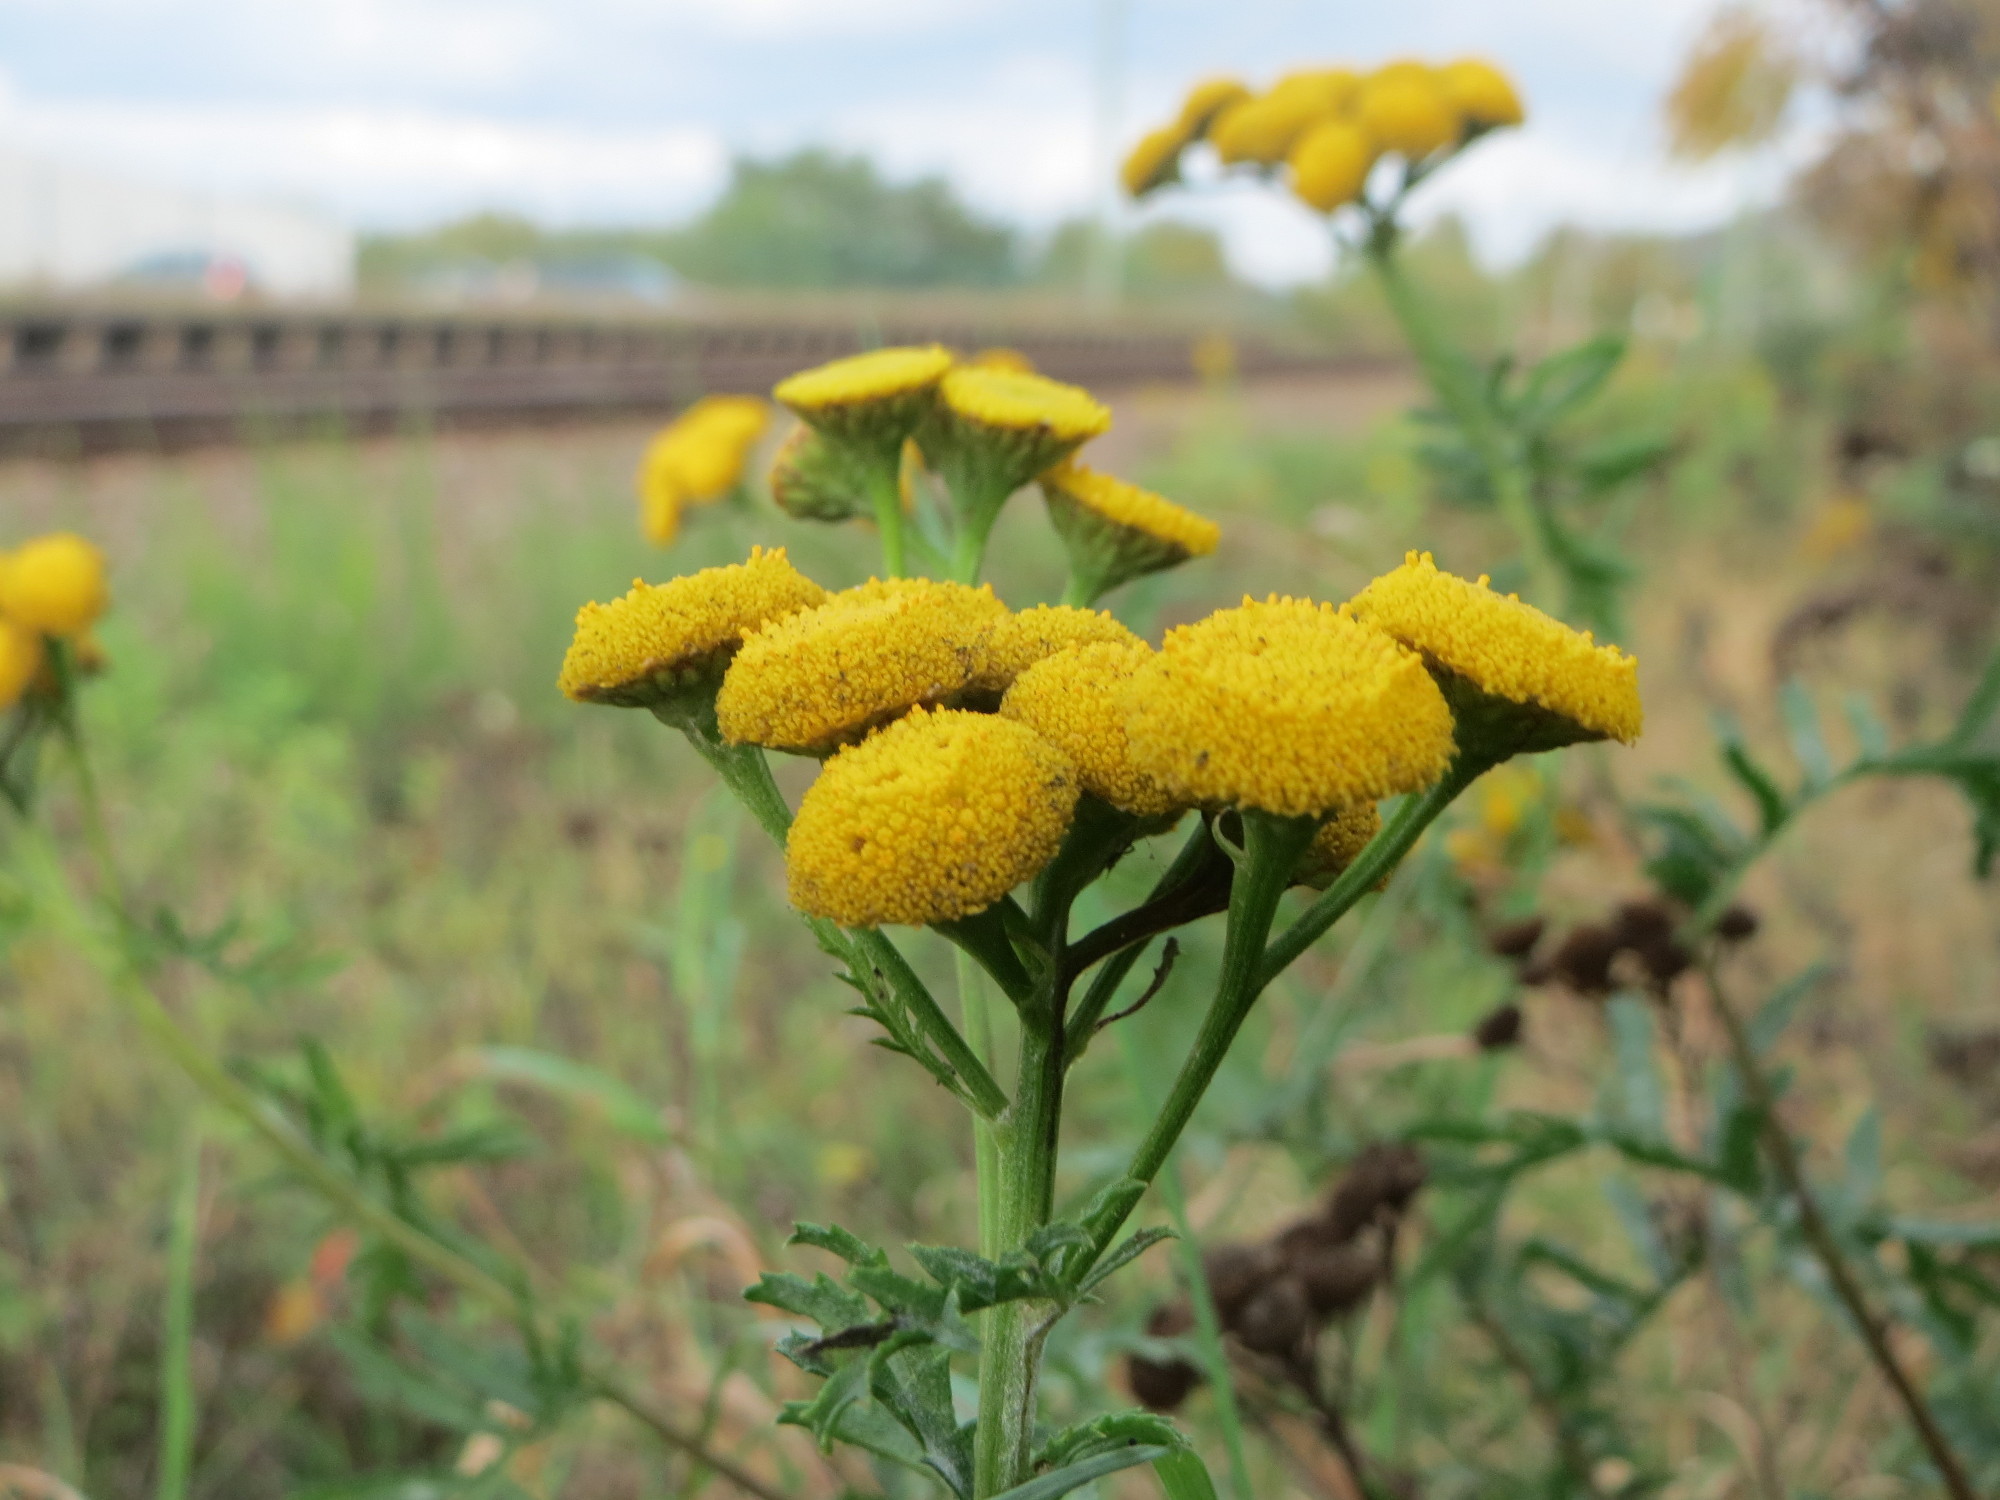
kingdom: Plantae
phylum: Tracheophyta
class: Magnoliopsida
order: Asterales
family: Asteraceae
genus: Tanacetum
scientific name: Tanacetum vulgare
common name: Common tansy
